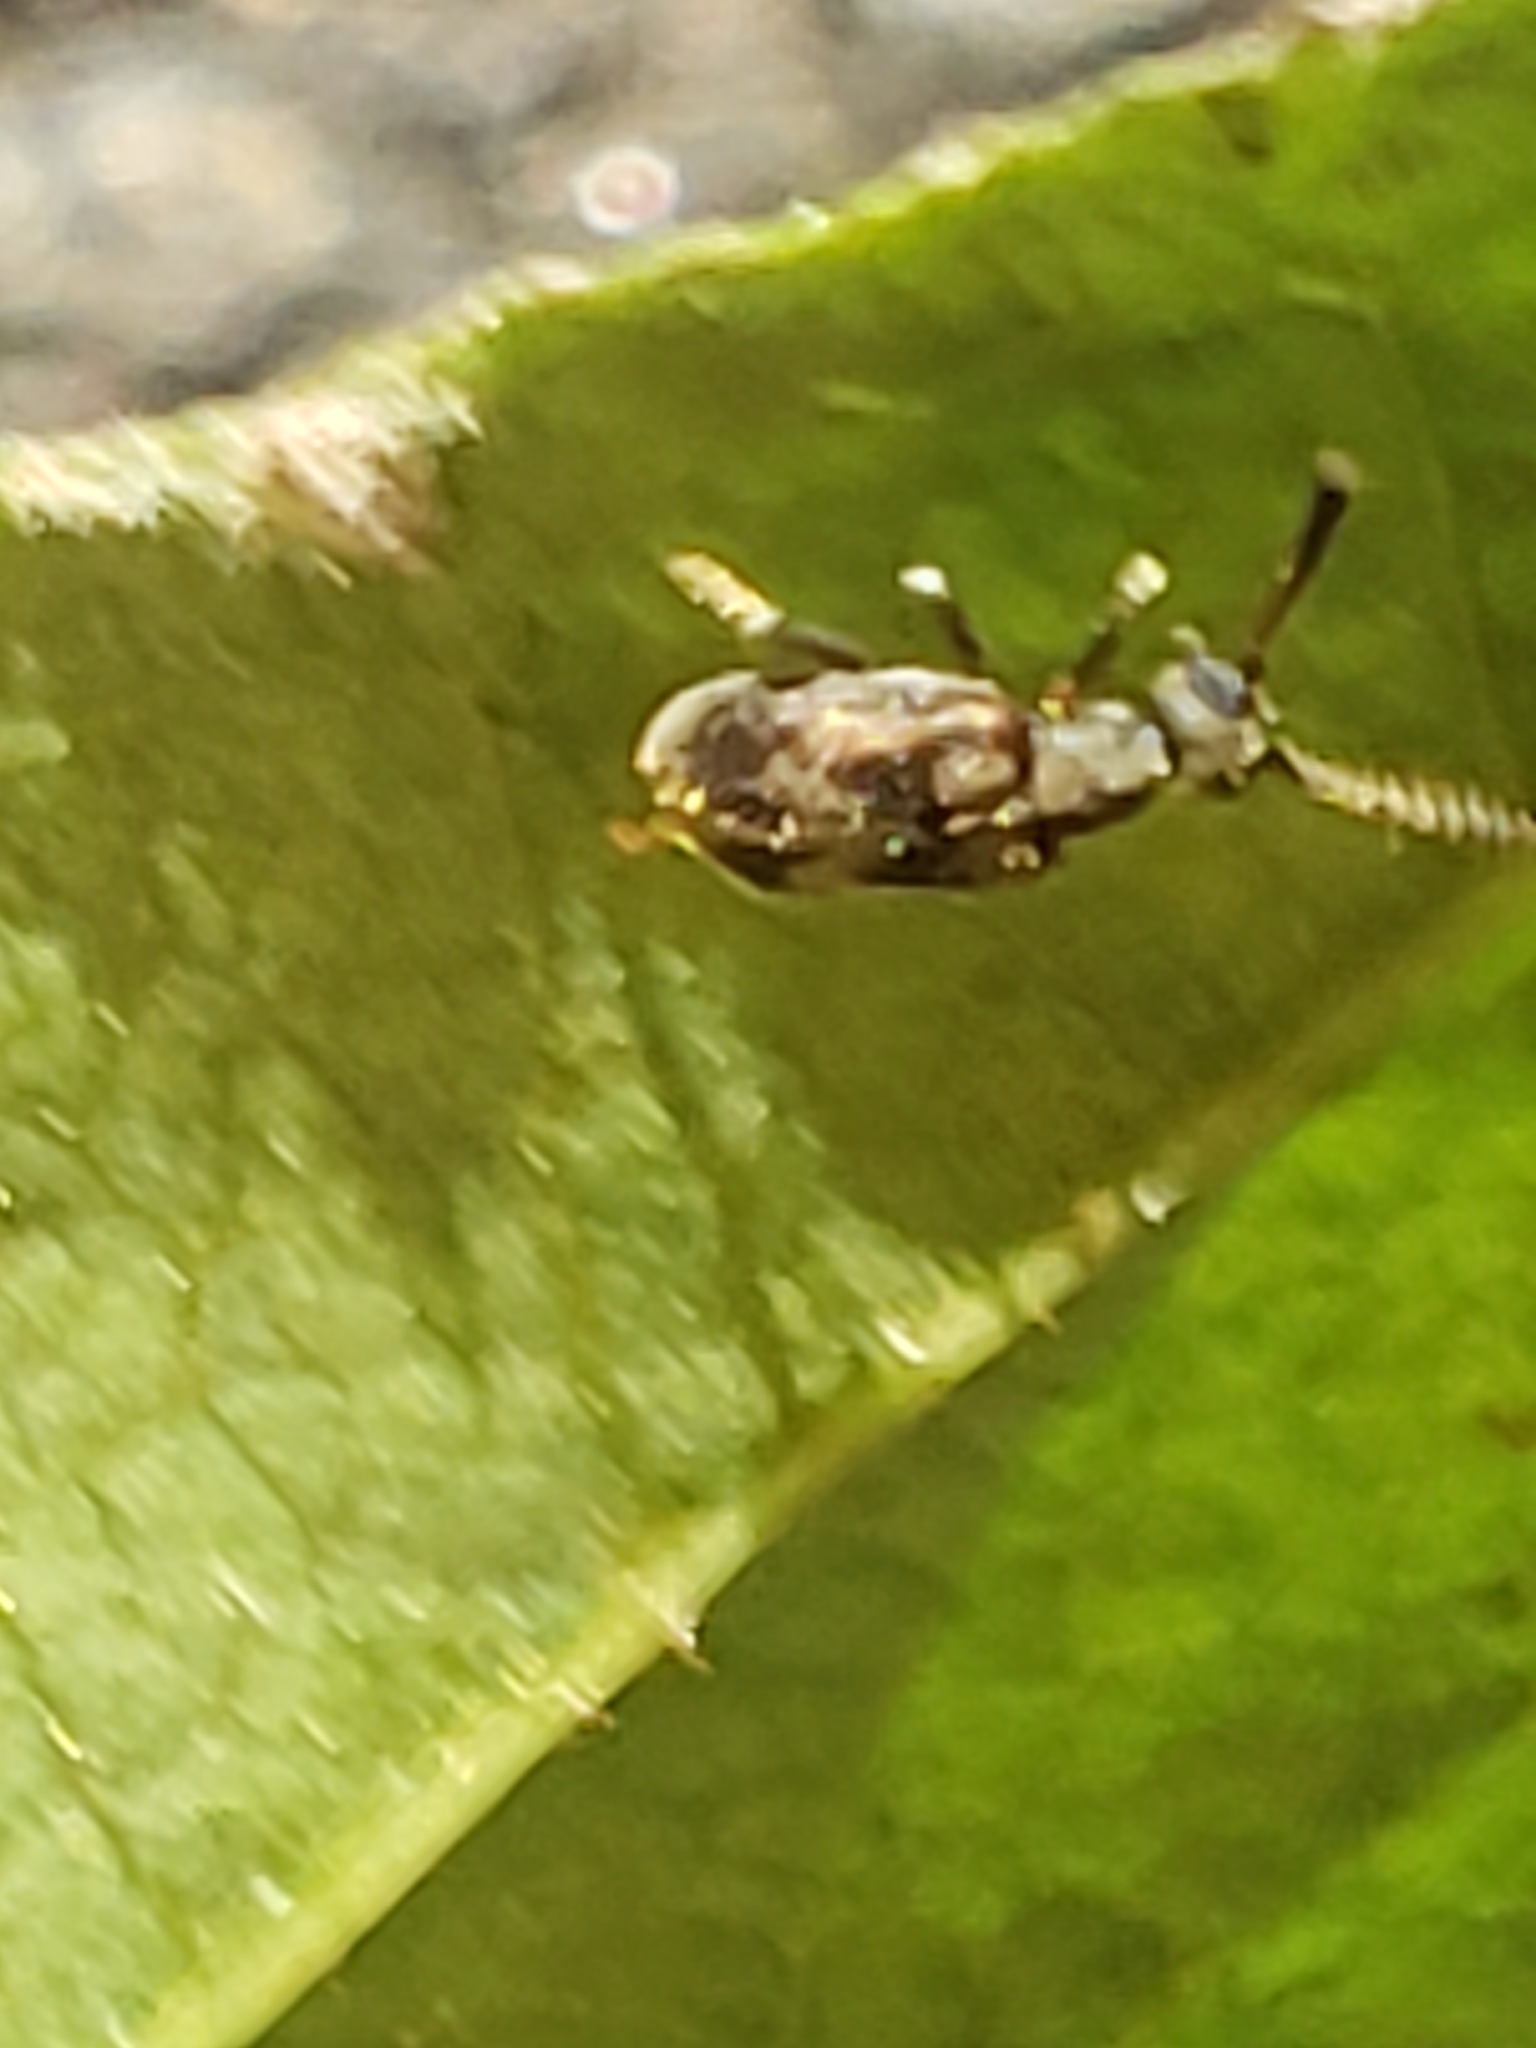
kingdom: Animalia
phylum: Arthropoda
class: Insecta
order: Coleoptera
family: Aderidae
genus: Elonus
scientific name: Elonus nebulosus
